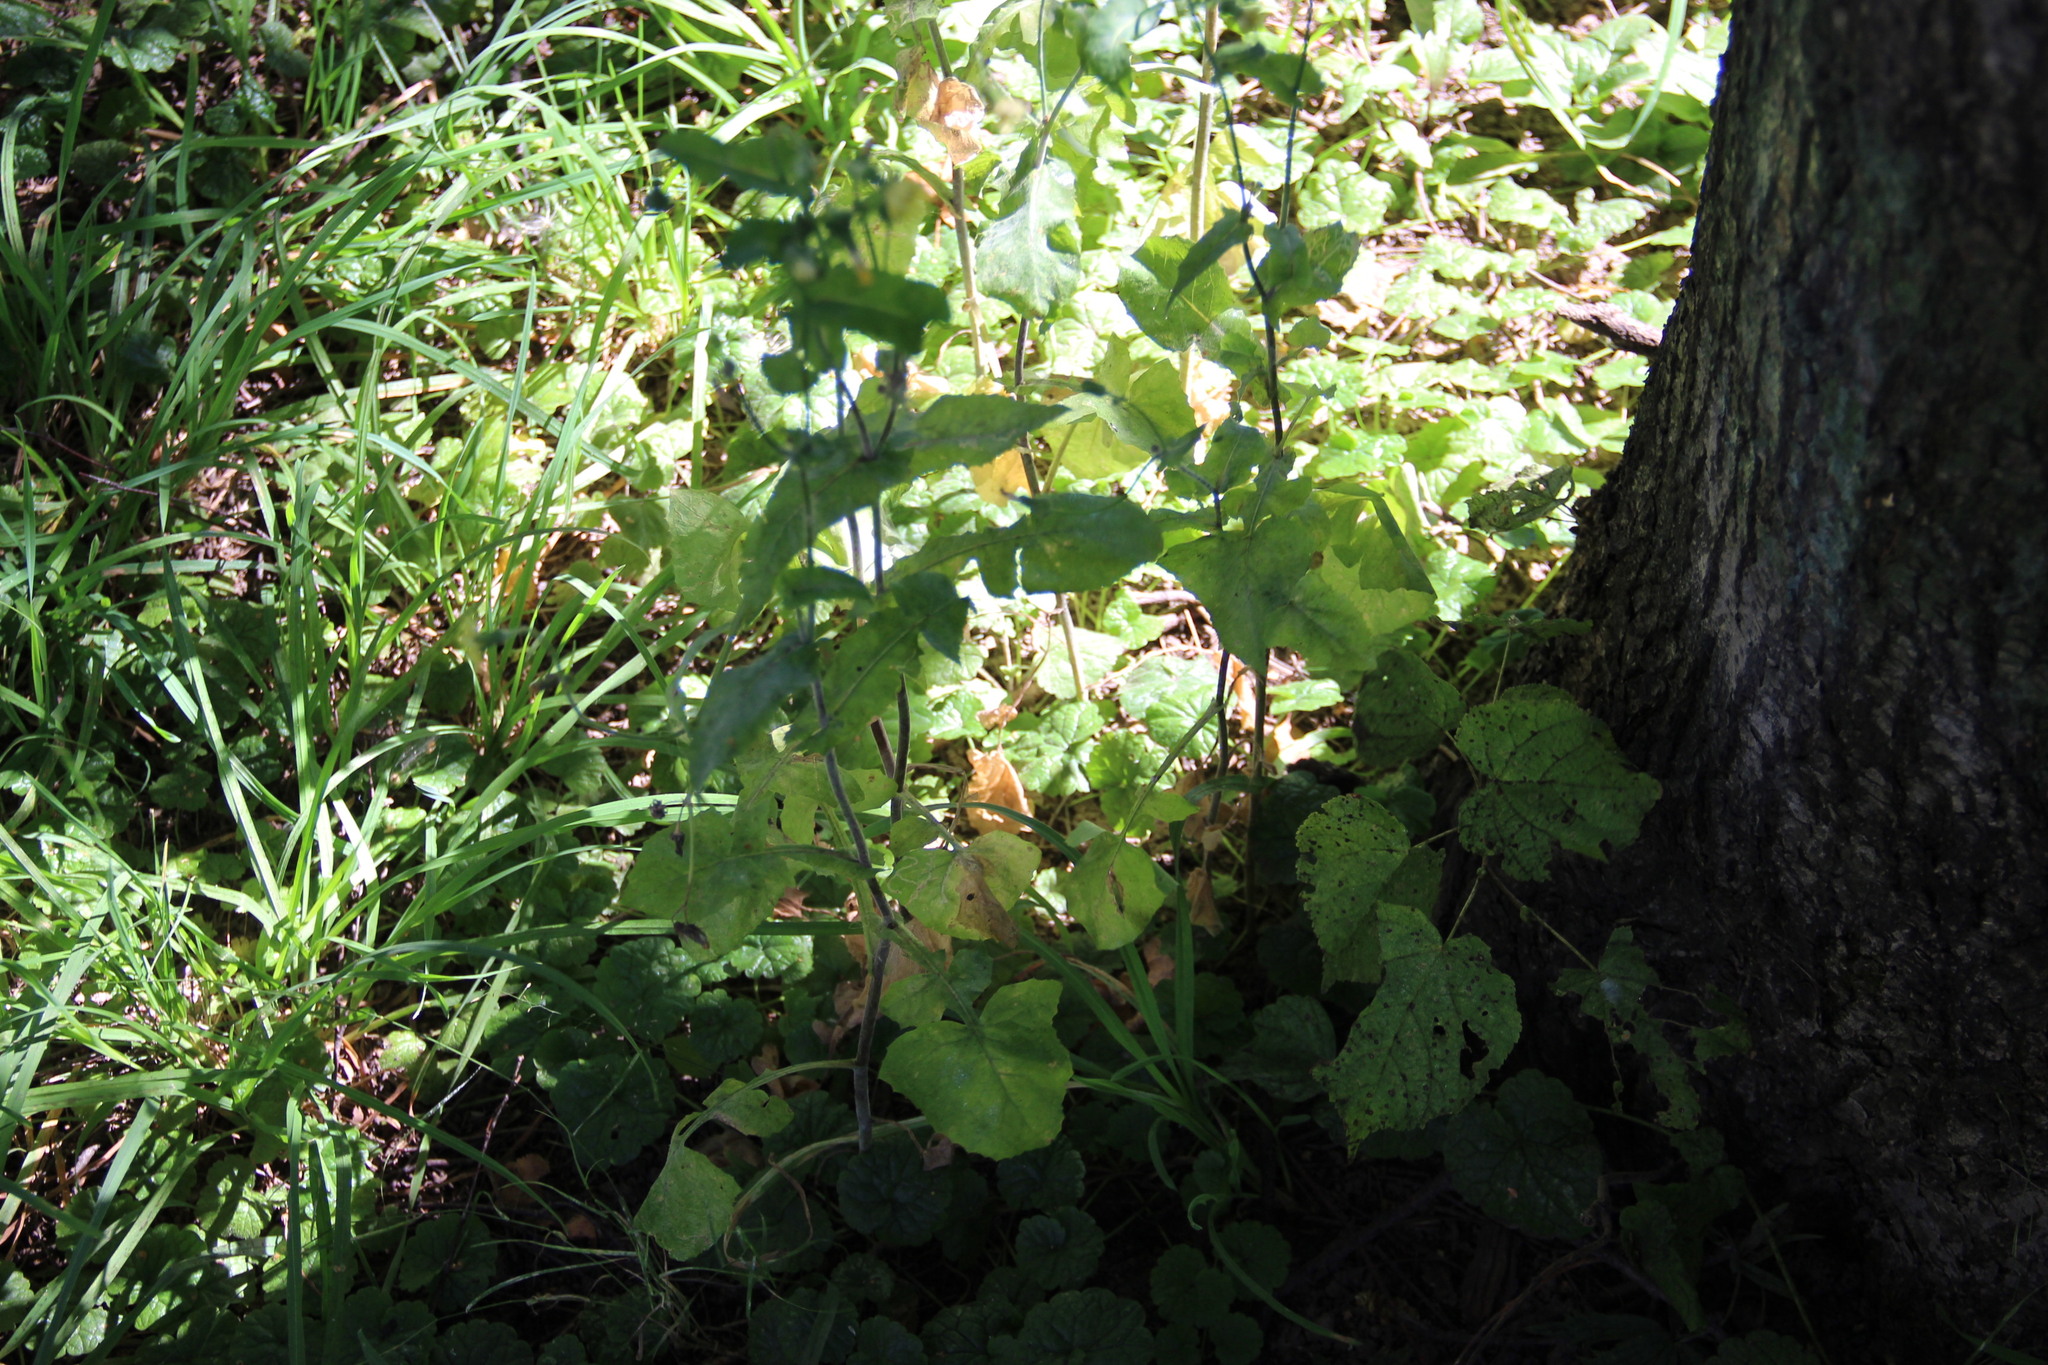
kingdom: Plantae
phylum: Tracheophyta
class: Magnoliopsida
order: Asterales
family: Asteraceae
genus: Sonchus
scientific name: Sonchus oleraceus
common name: Common sowthistle
